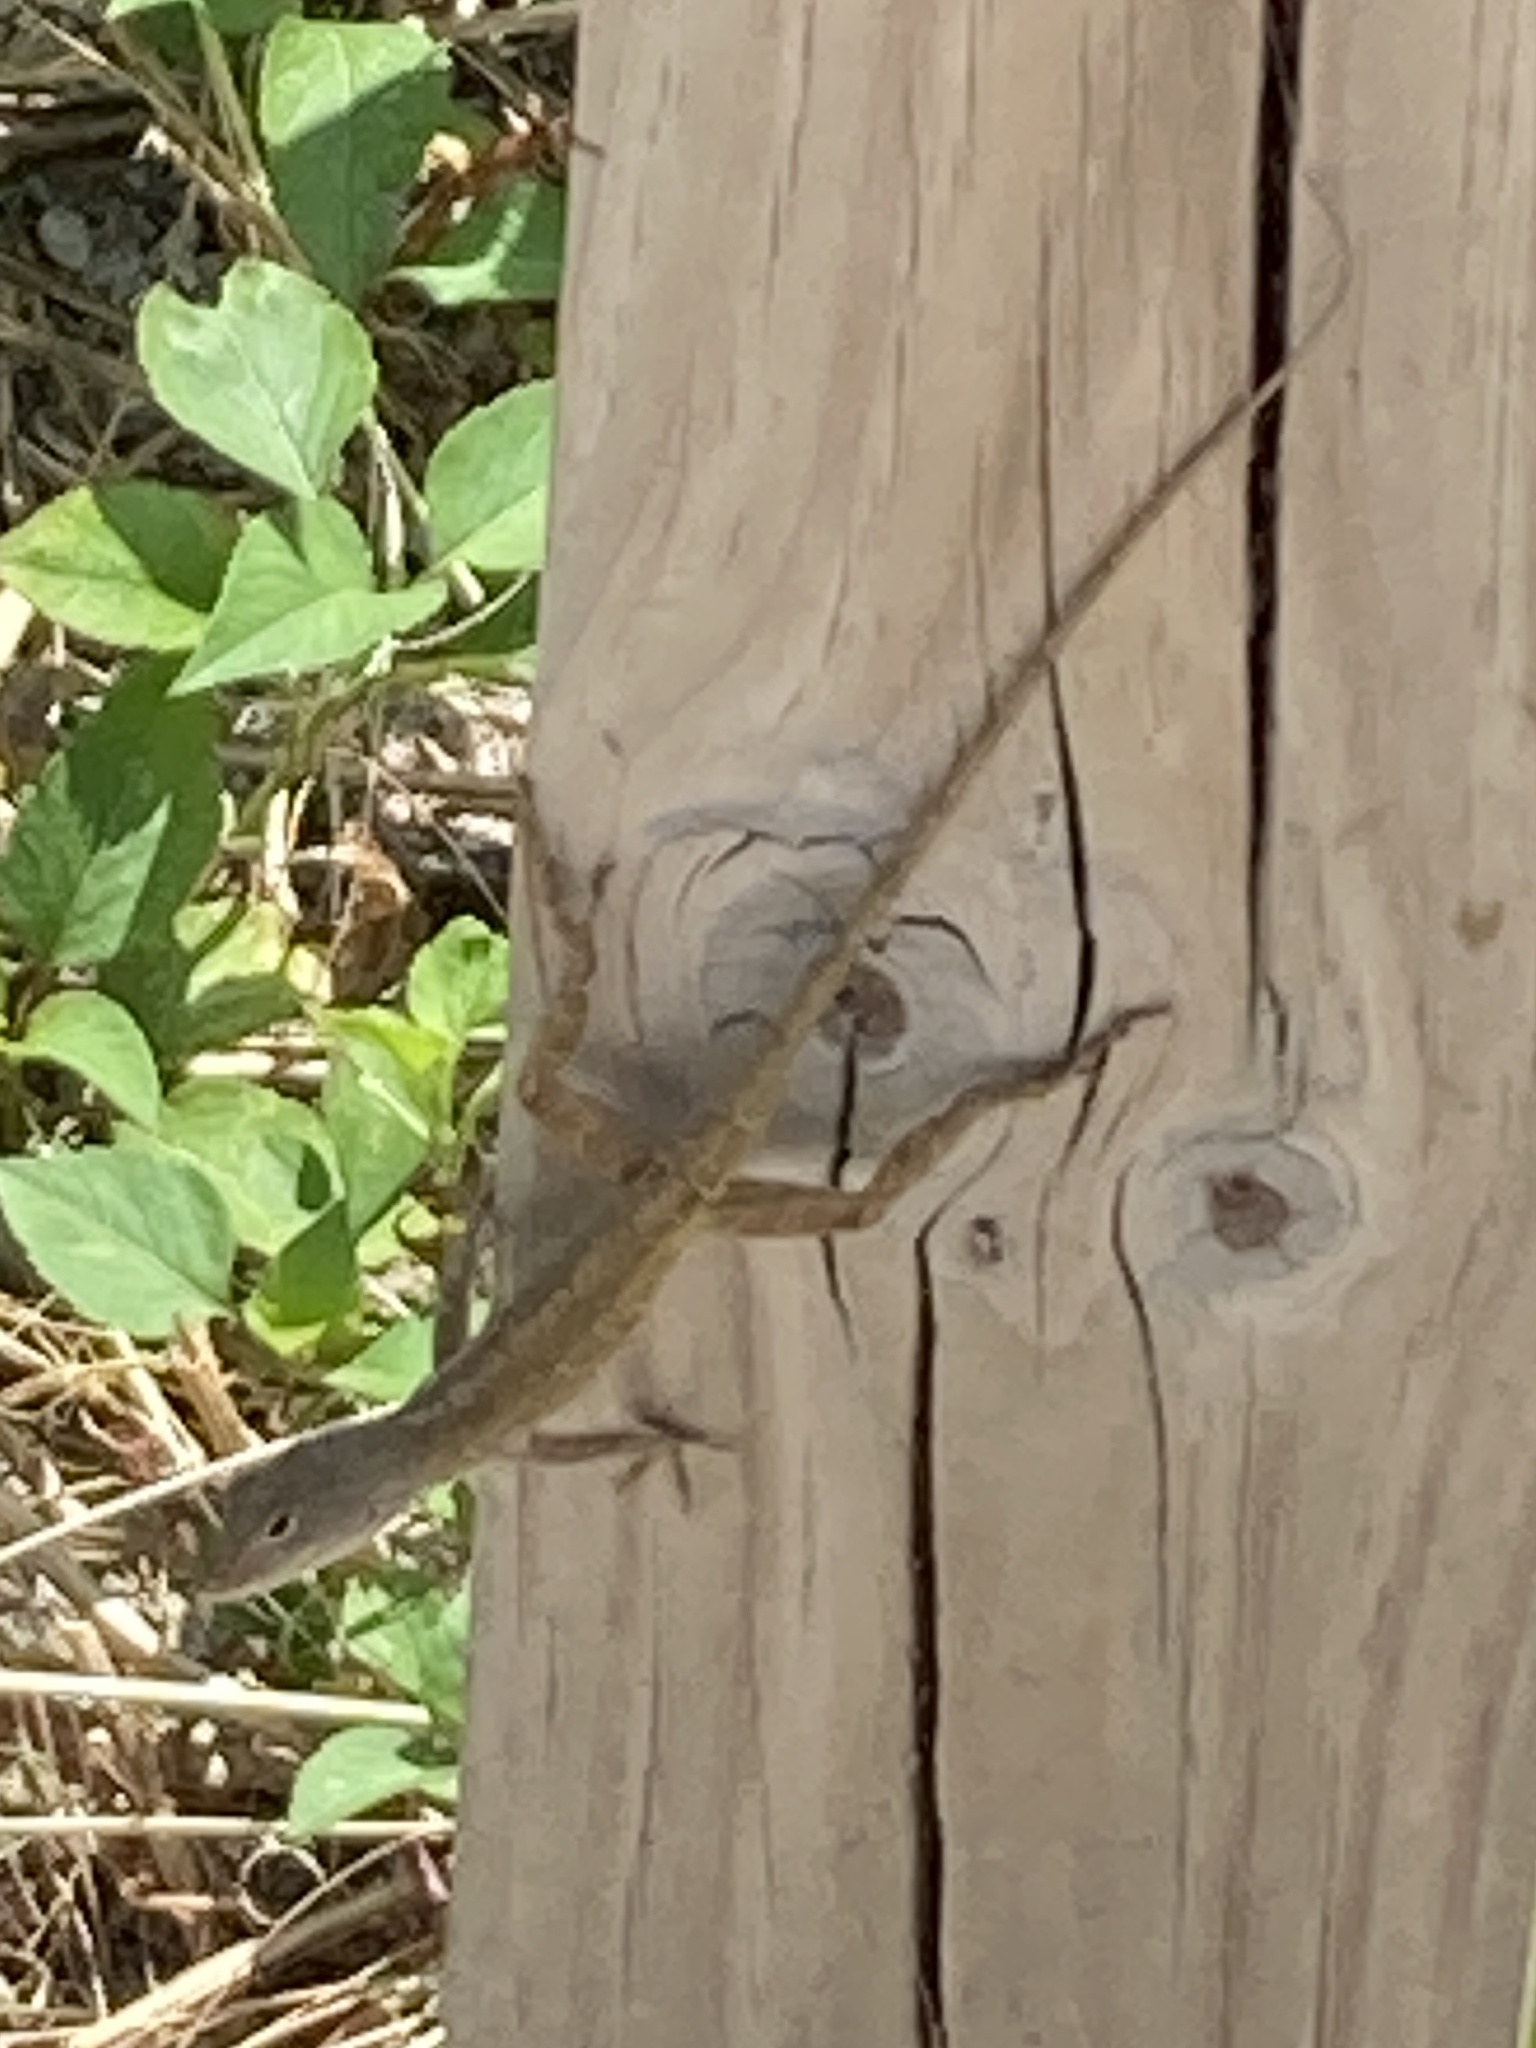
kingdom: Animalia
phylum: Chordata
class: Squamata
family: Dactyloidae
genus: Anolis
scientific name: Anolis sagrei
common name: Brown anole
